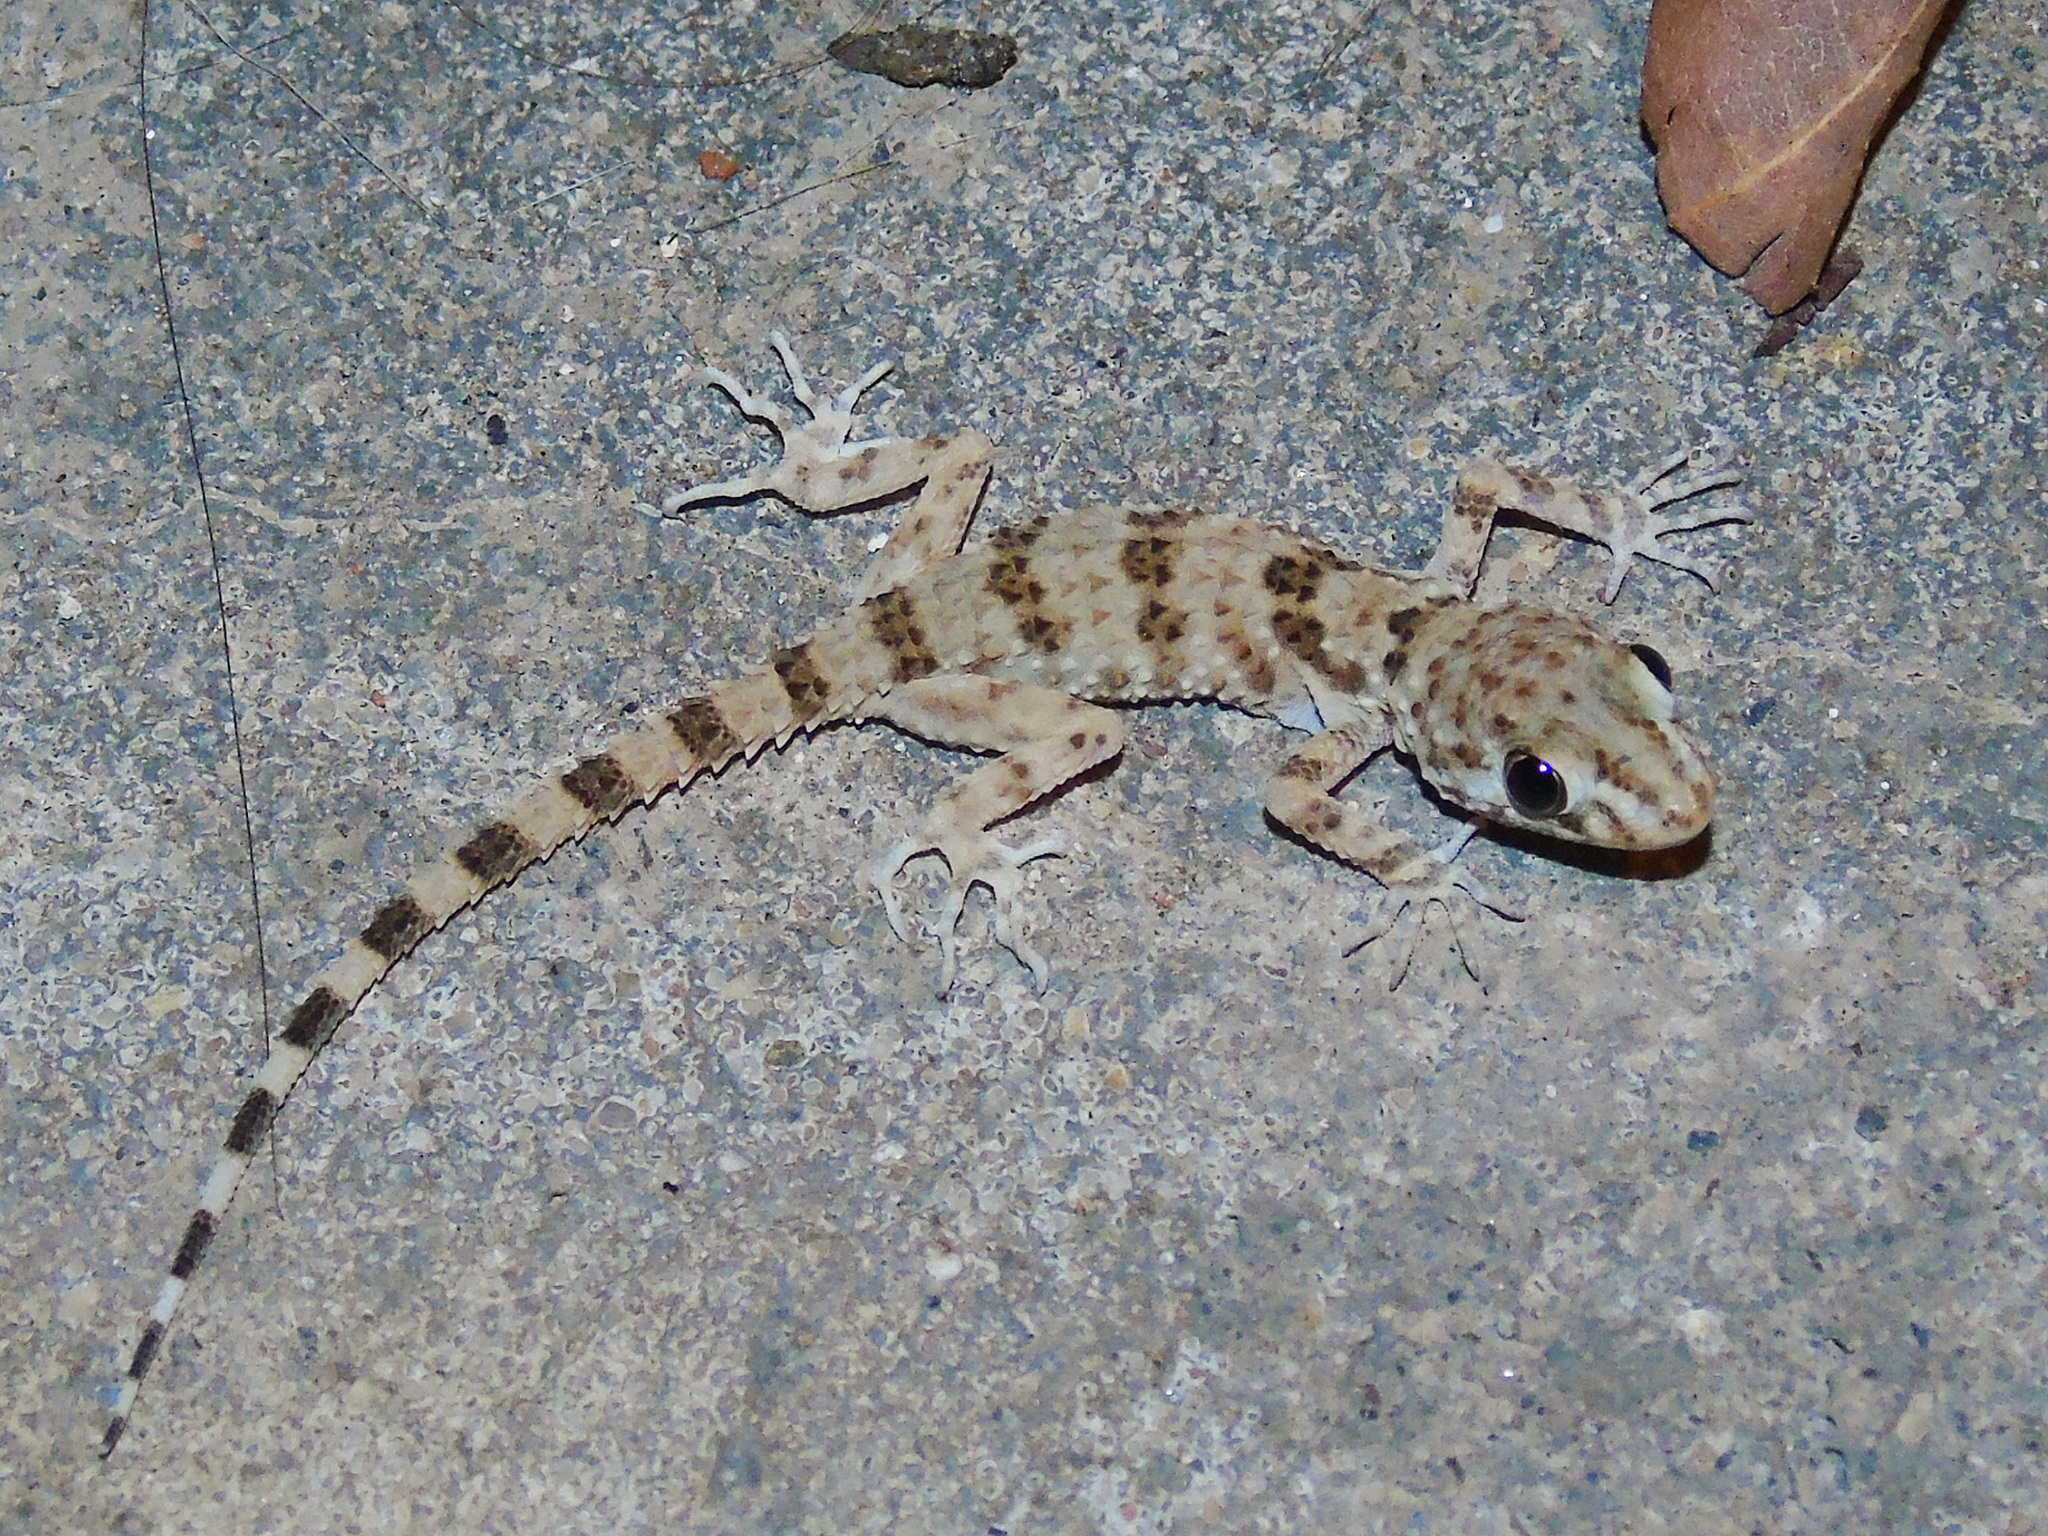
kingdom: Animalia
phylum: Chordata
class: Squamata
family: Gekkonidae
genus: Tenuidactylus
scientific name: Tenuidactylus caspius
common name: Caspian bent-toed gecko
